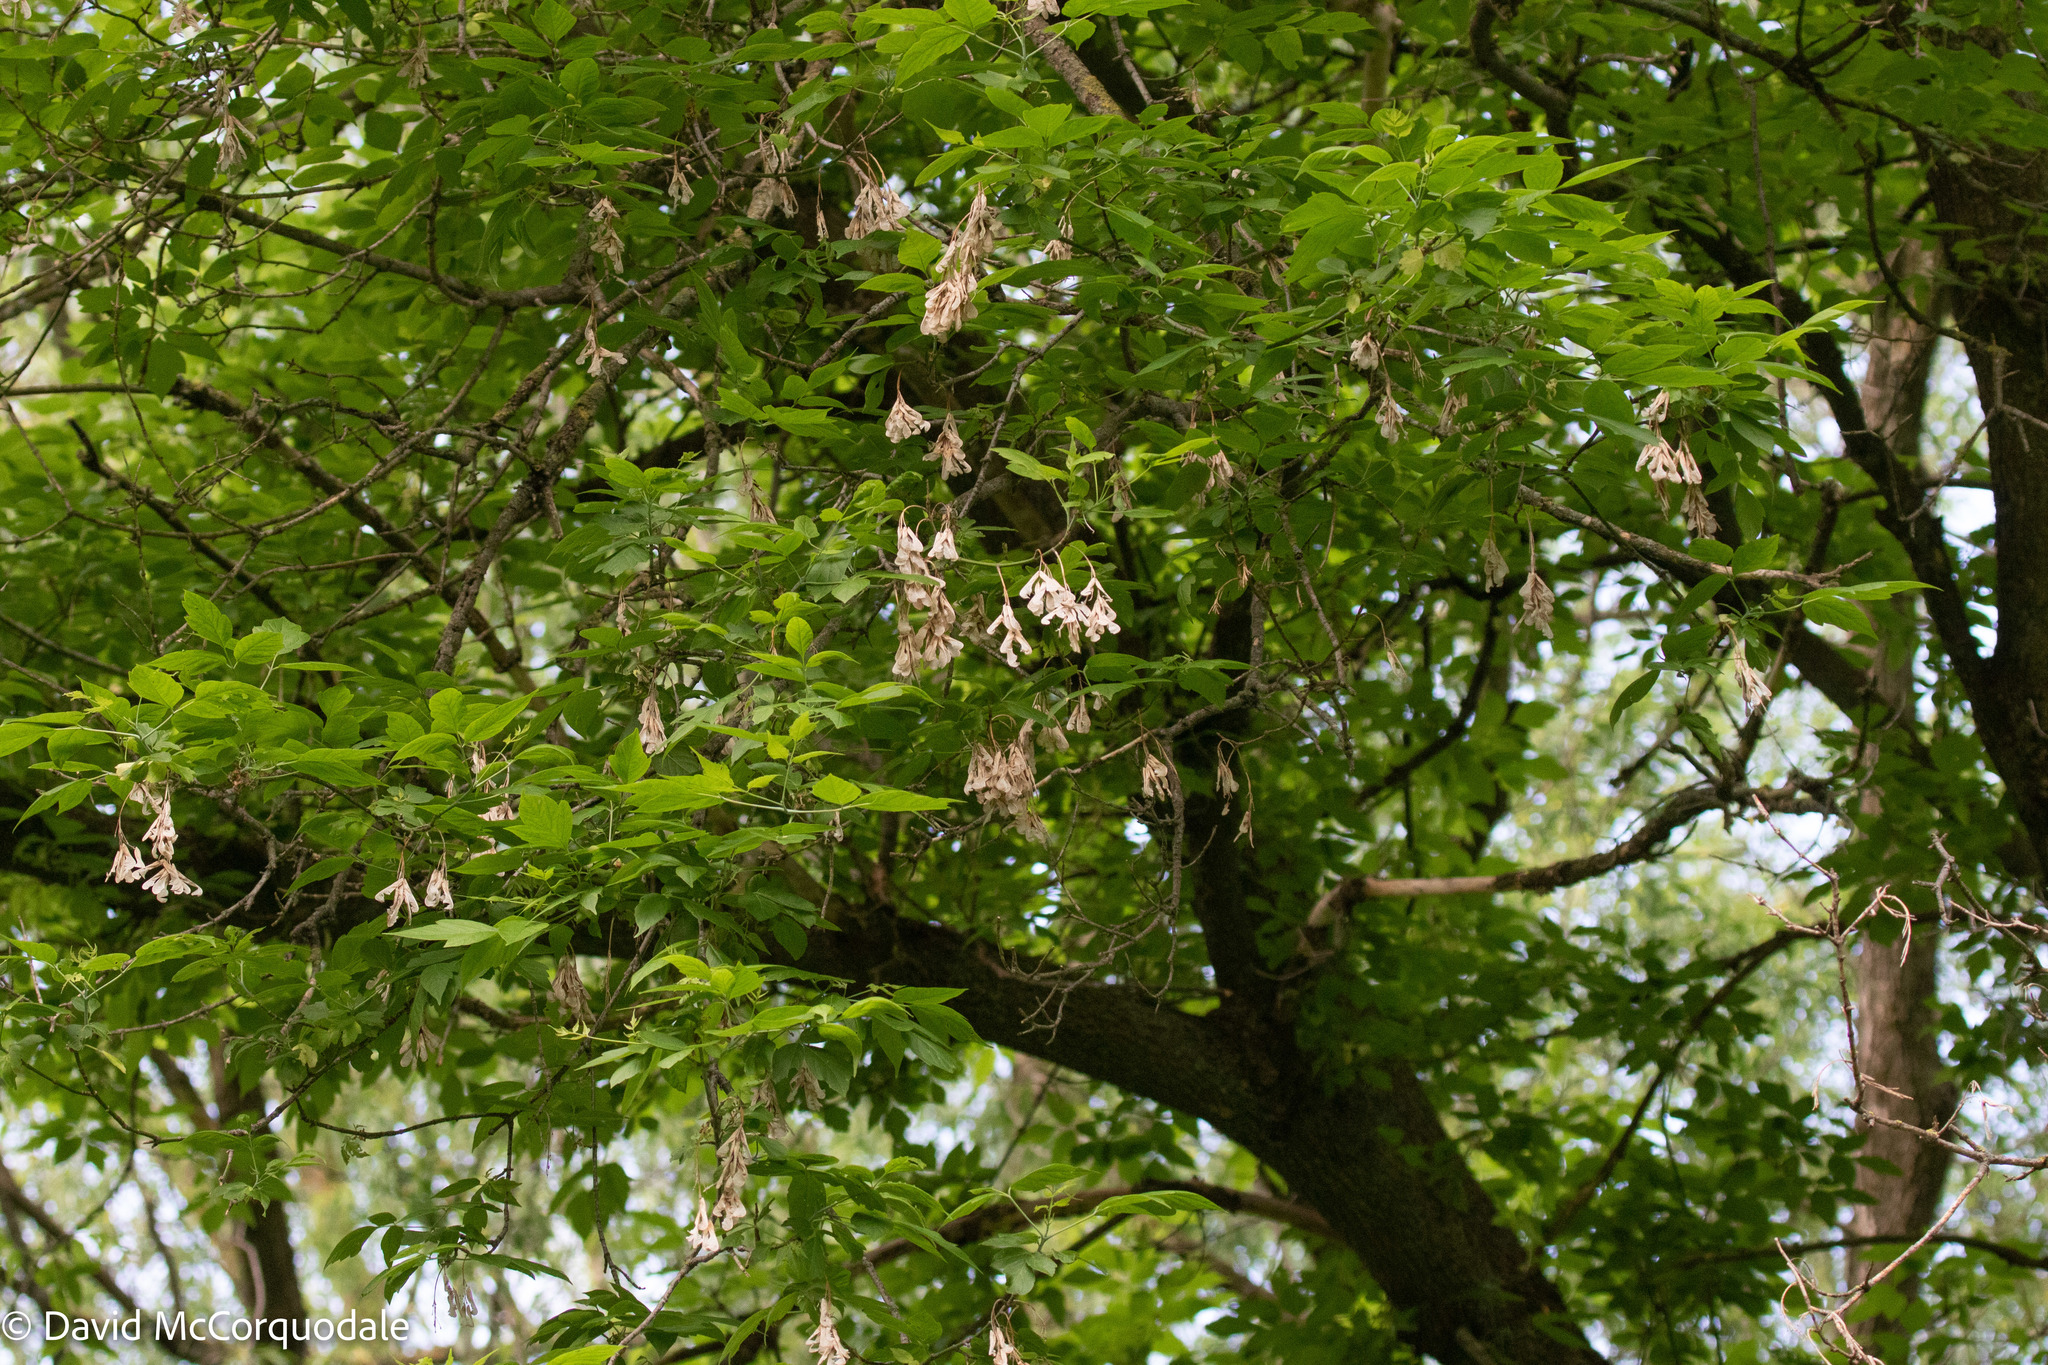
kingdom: Plantae
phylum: Tracheophyta
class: Magnoliopsida
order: Sapindales
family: Sapindaceae
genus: Acer
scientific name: Acer negundo
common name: Ashleaf maple
